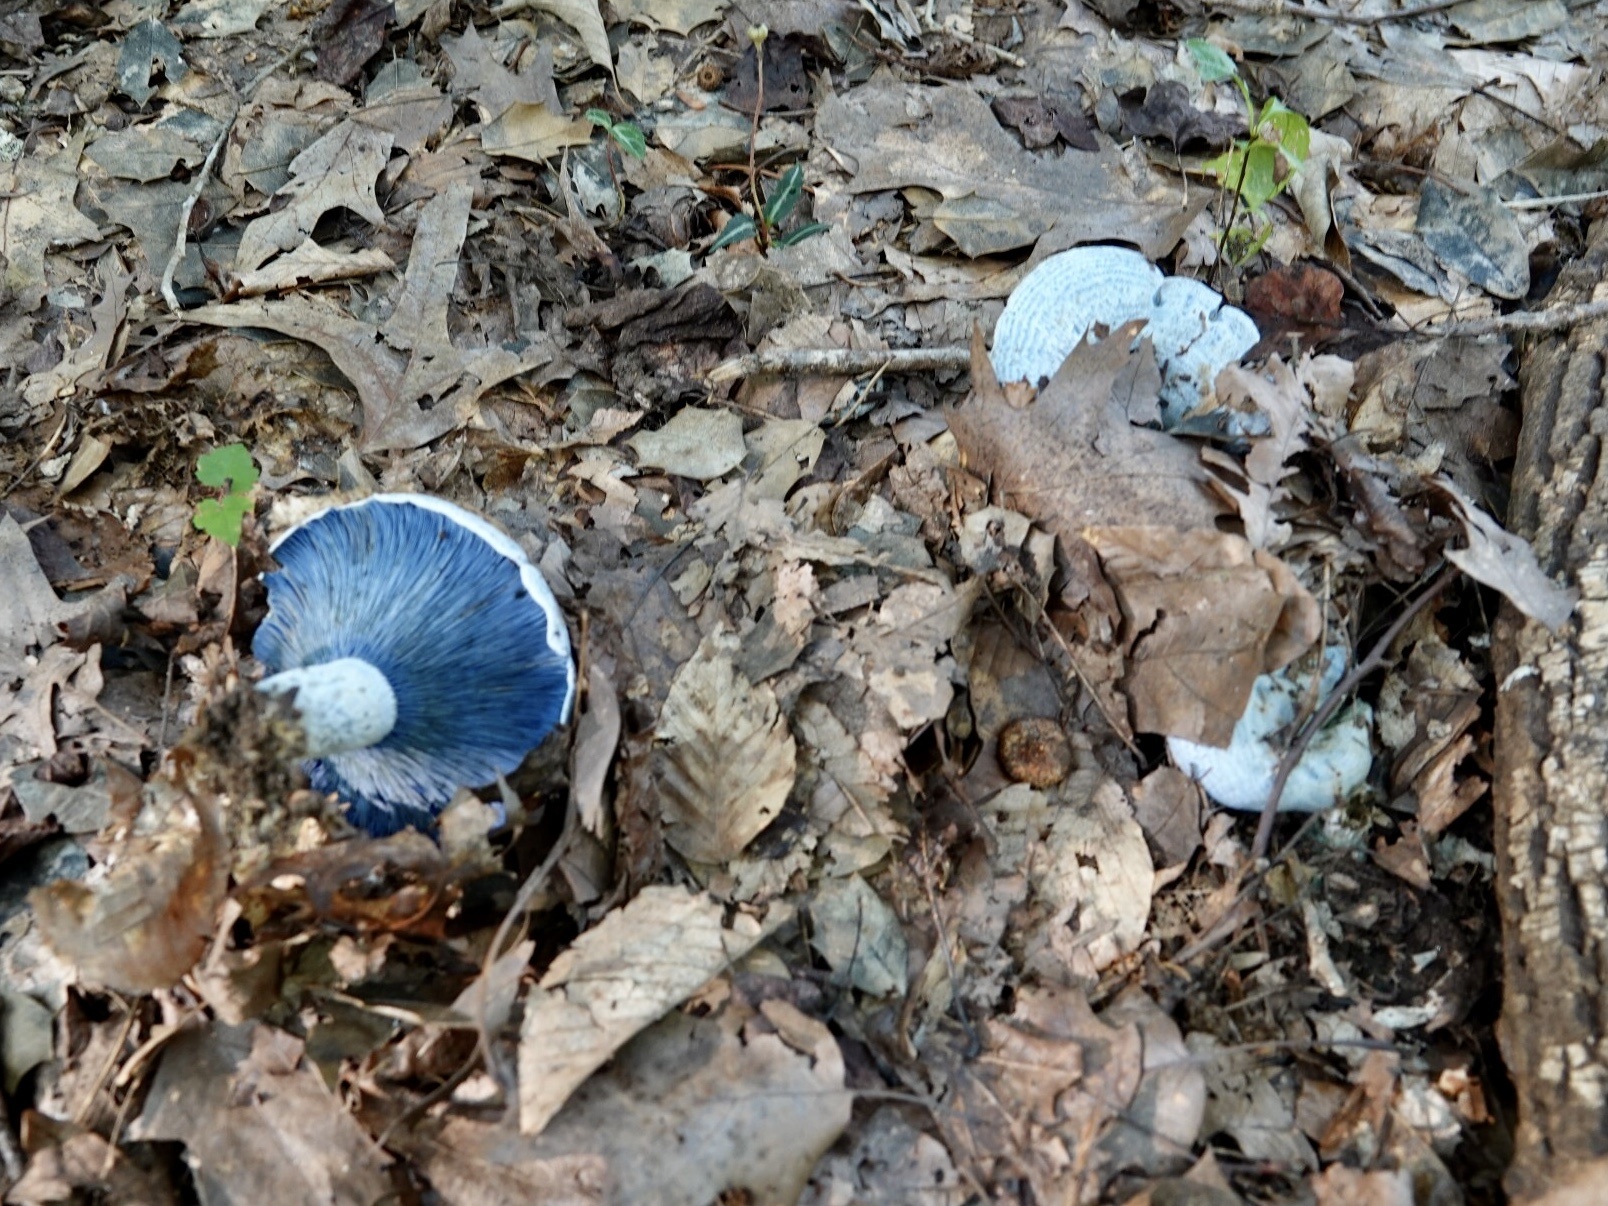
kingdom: Fungi
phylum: Basidiomycota
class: Agaricomycetes
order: Russulales
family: Russulaceae
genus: Lactarius
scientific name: Lactarius indigo
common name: Indigo milk cap
